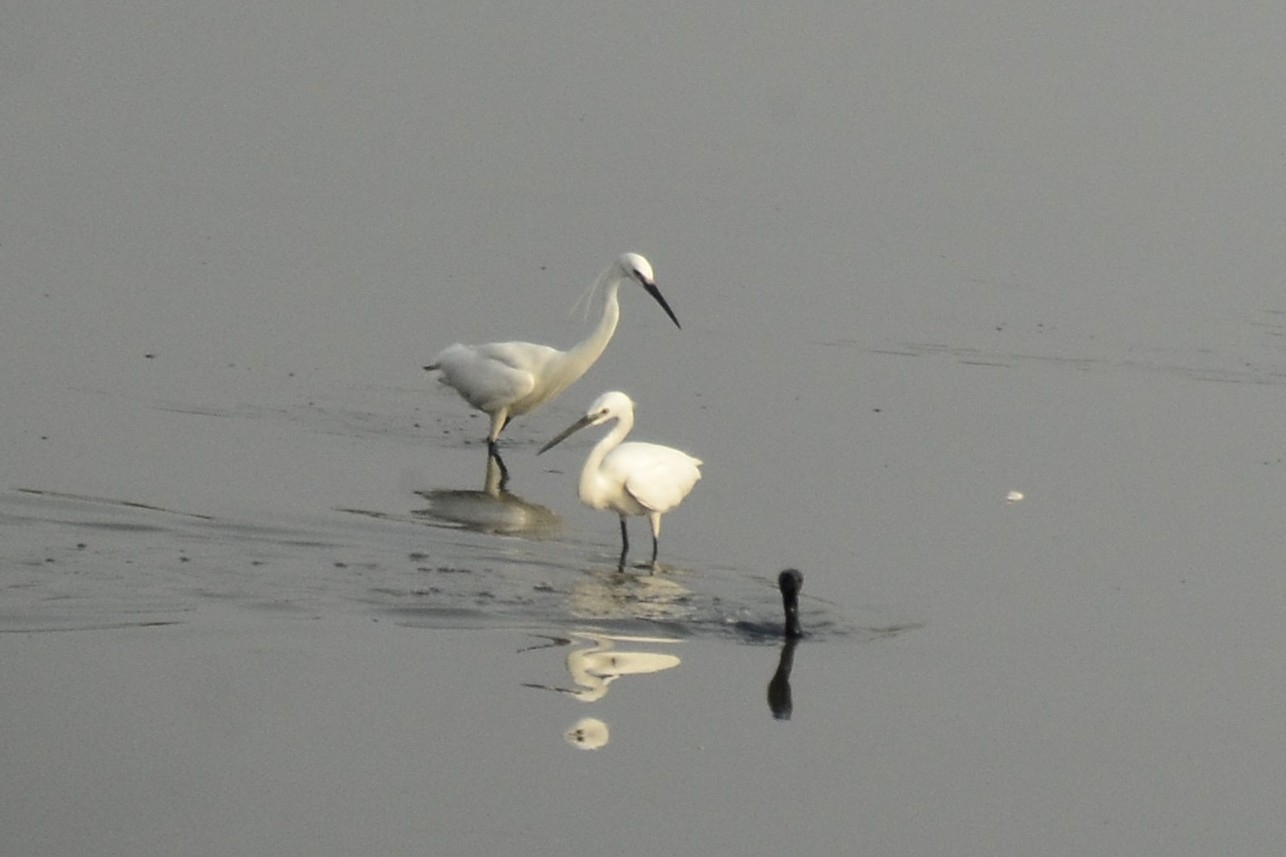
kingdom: Animalia
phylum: Chordata
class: Aves
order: Pelecaniformes
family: Ardeidae
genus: Egretta
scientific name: Egretta garzetta
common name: Little egret
